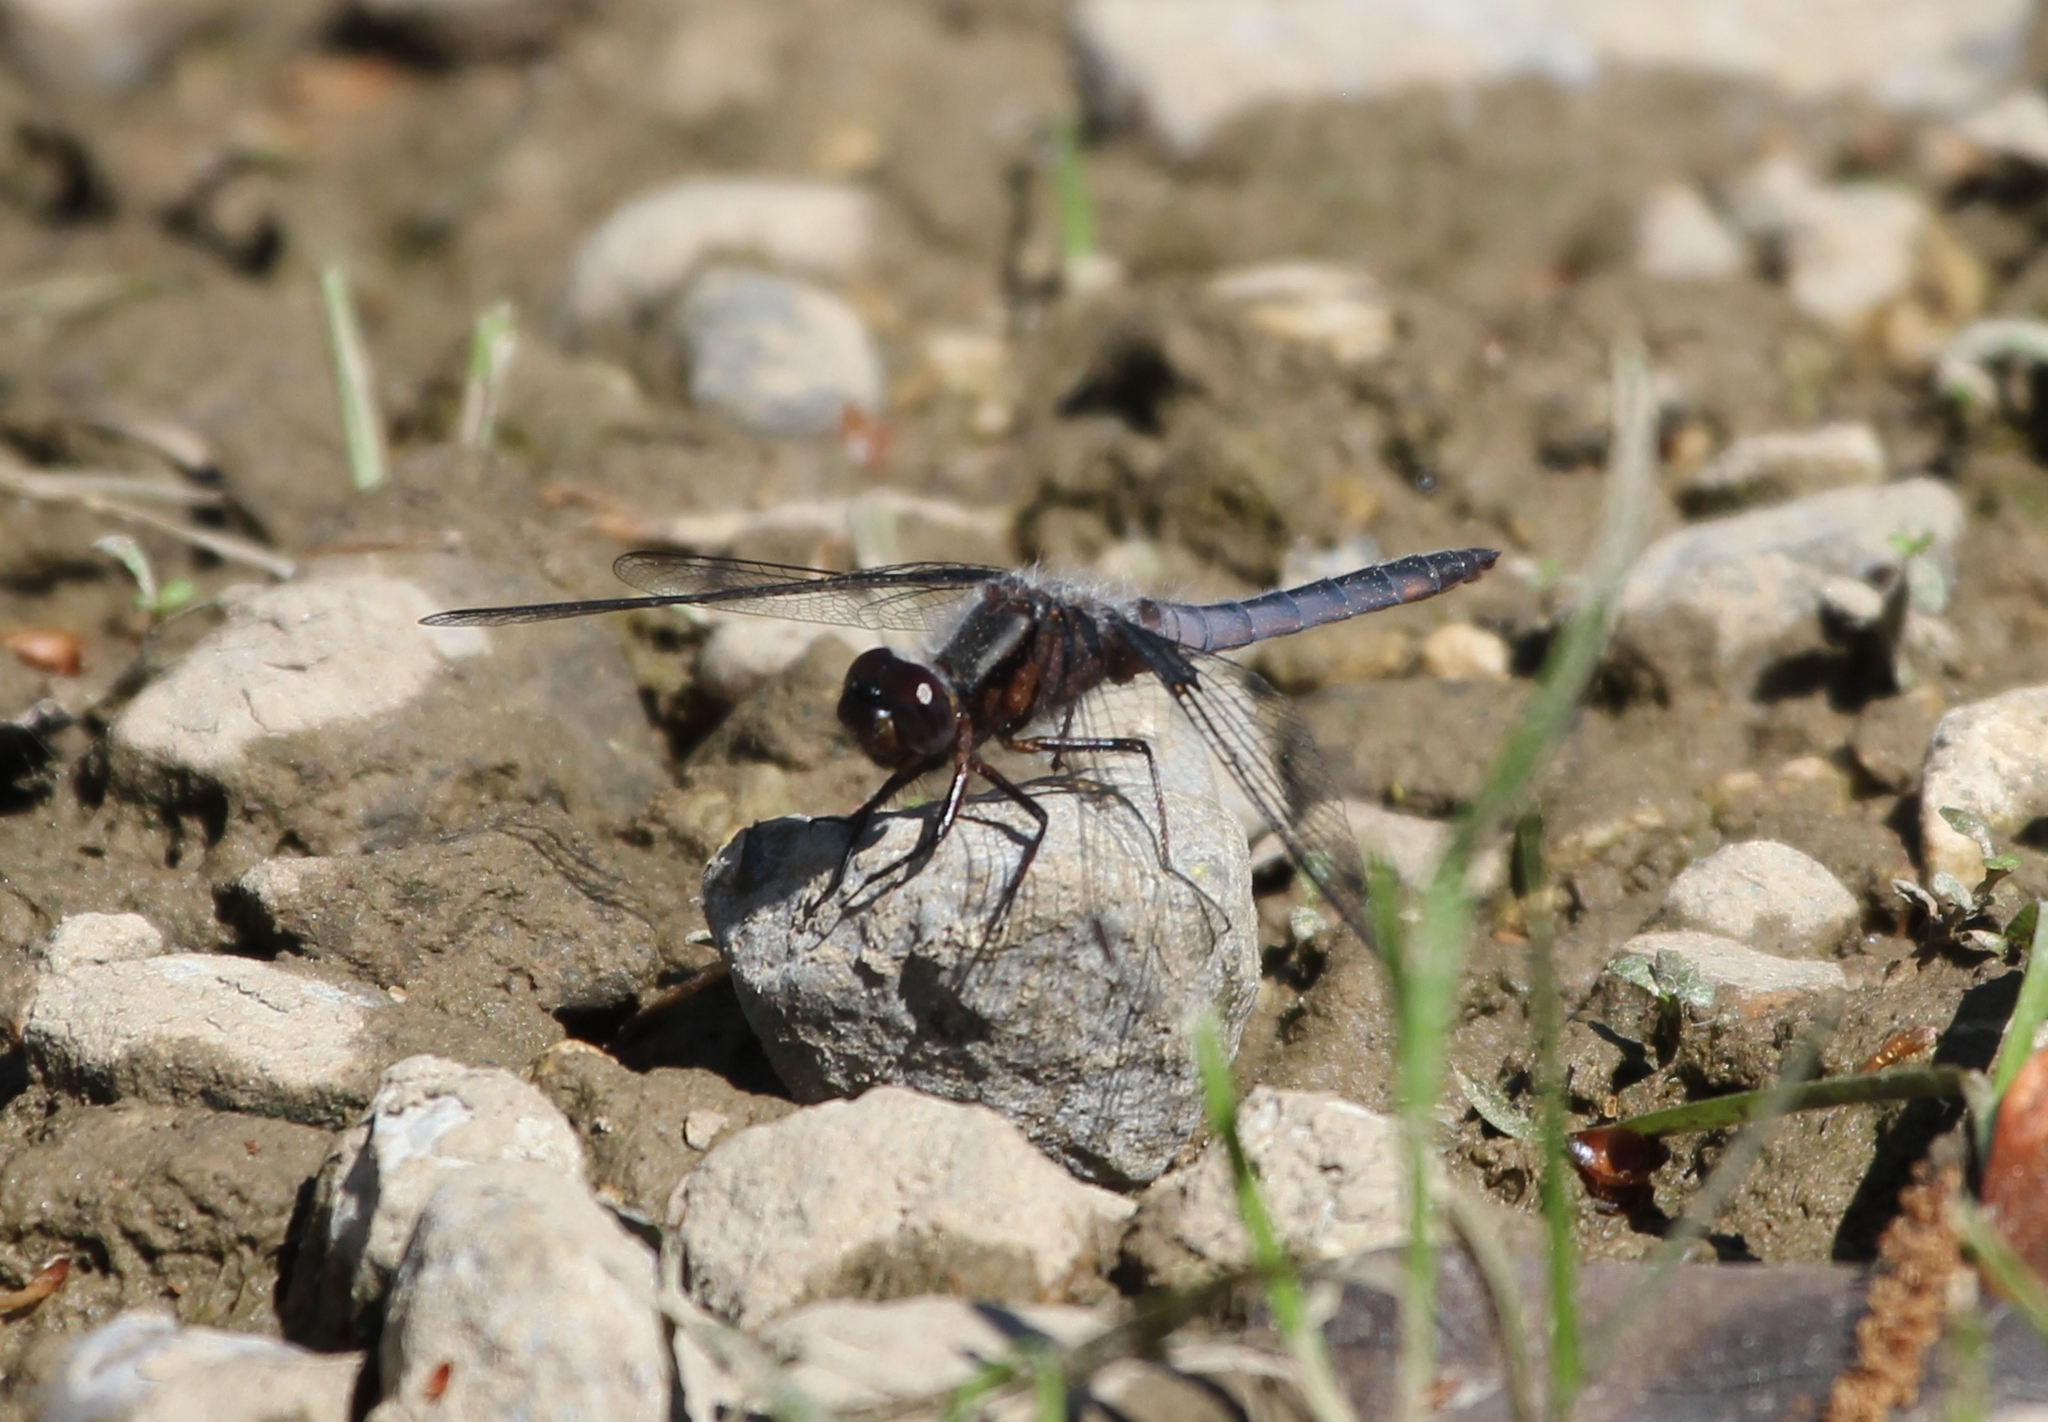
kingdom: Animalia
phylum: Arthropoda
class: Insecta
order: Odonata
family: Libellulidae
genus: Ladona
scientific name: Ladona deplanata
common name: Blue corporal
